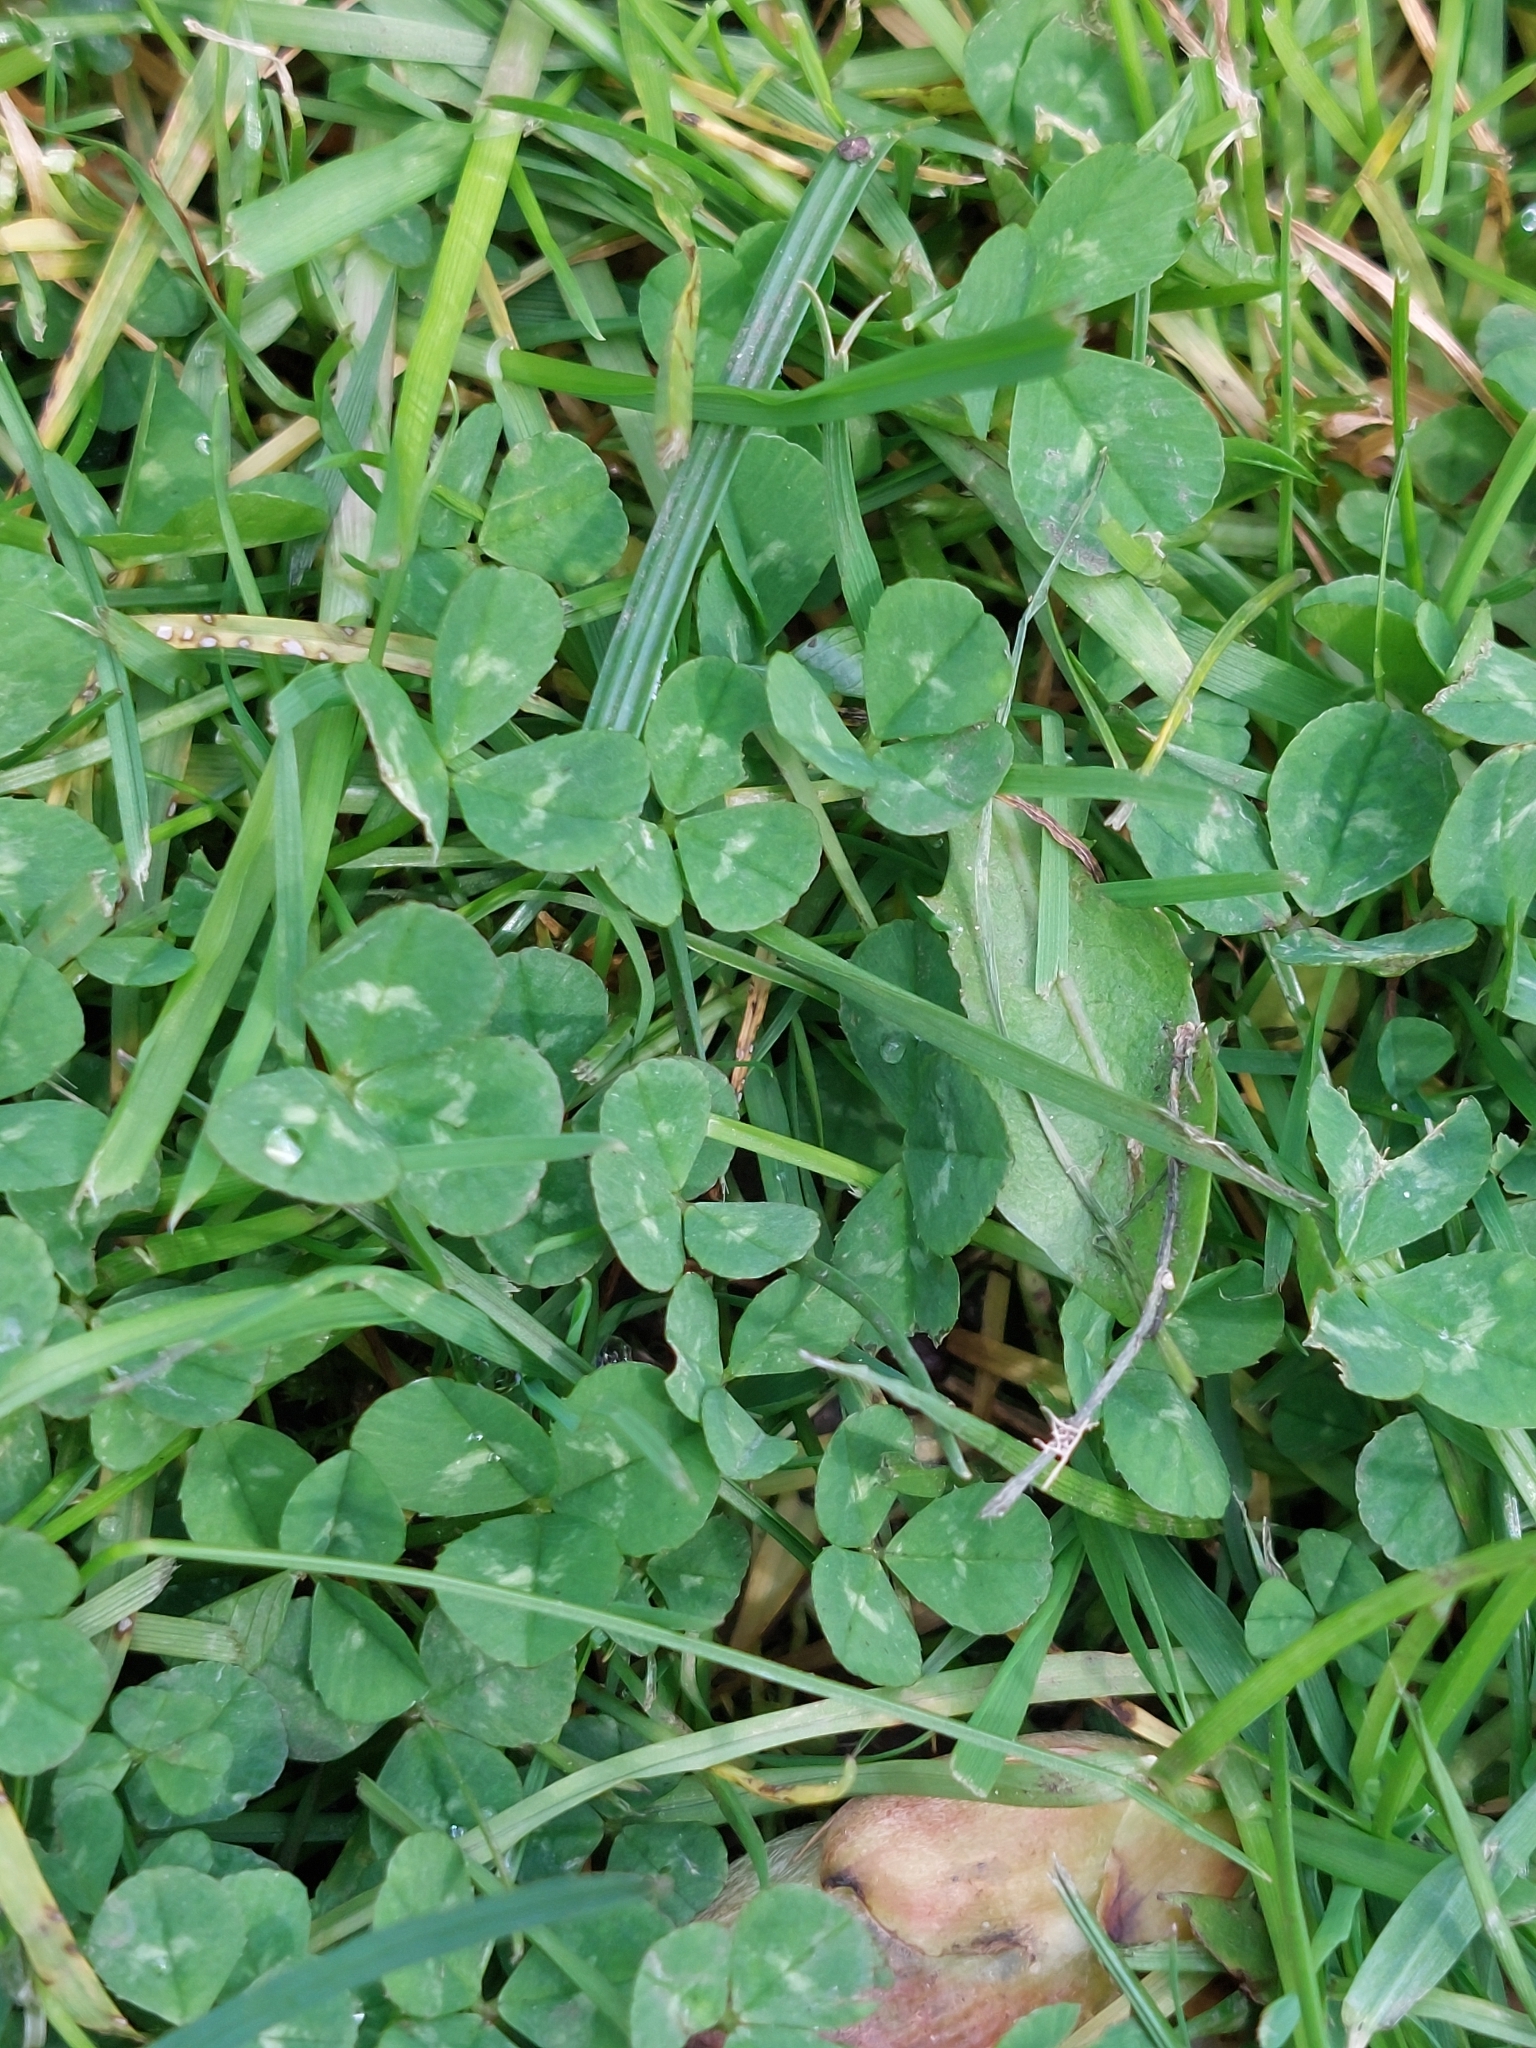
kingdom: Plantae
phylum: Tracheophyta
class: Magnoliopsida
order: Fabales
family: Fabaceae
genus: Trifolium
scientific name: Trifolium repens
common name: White clover
